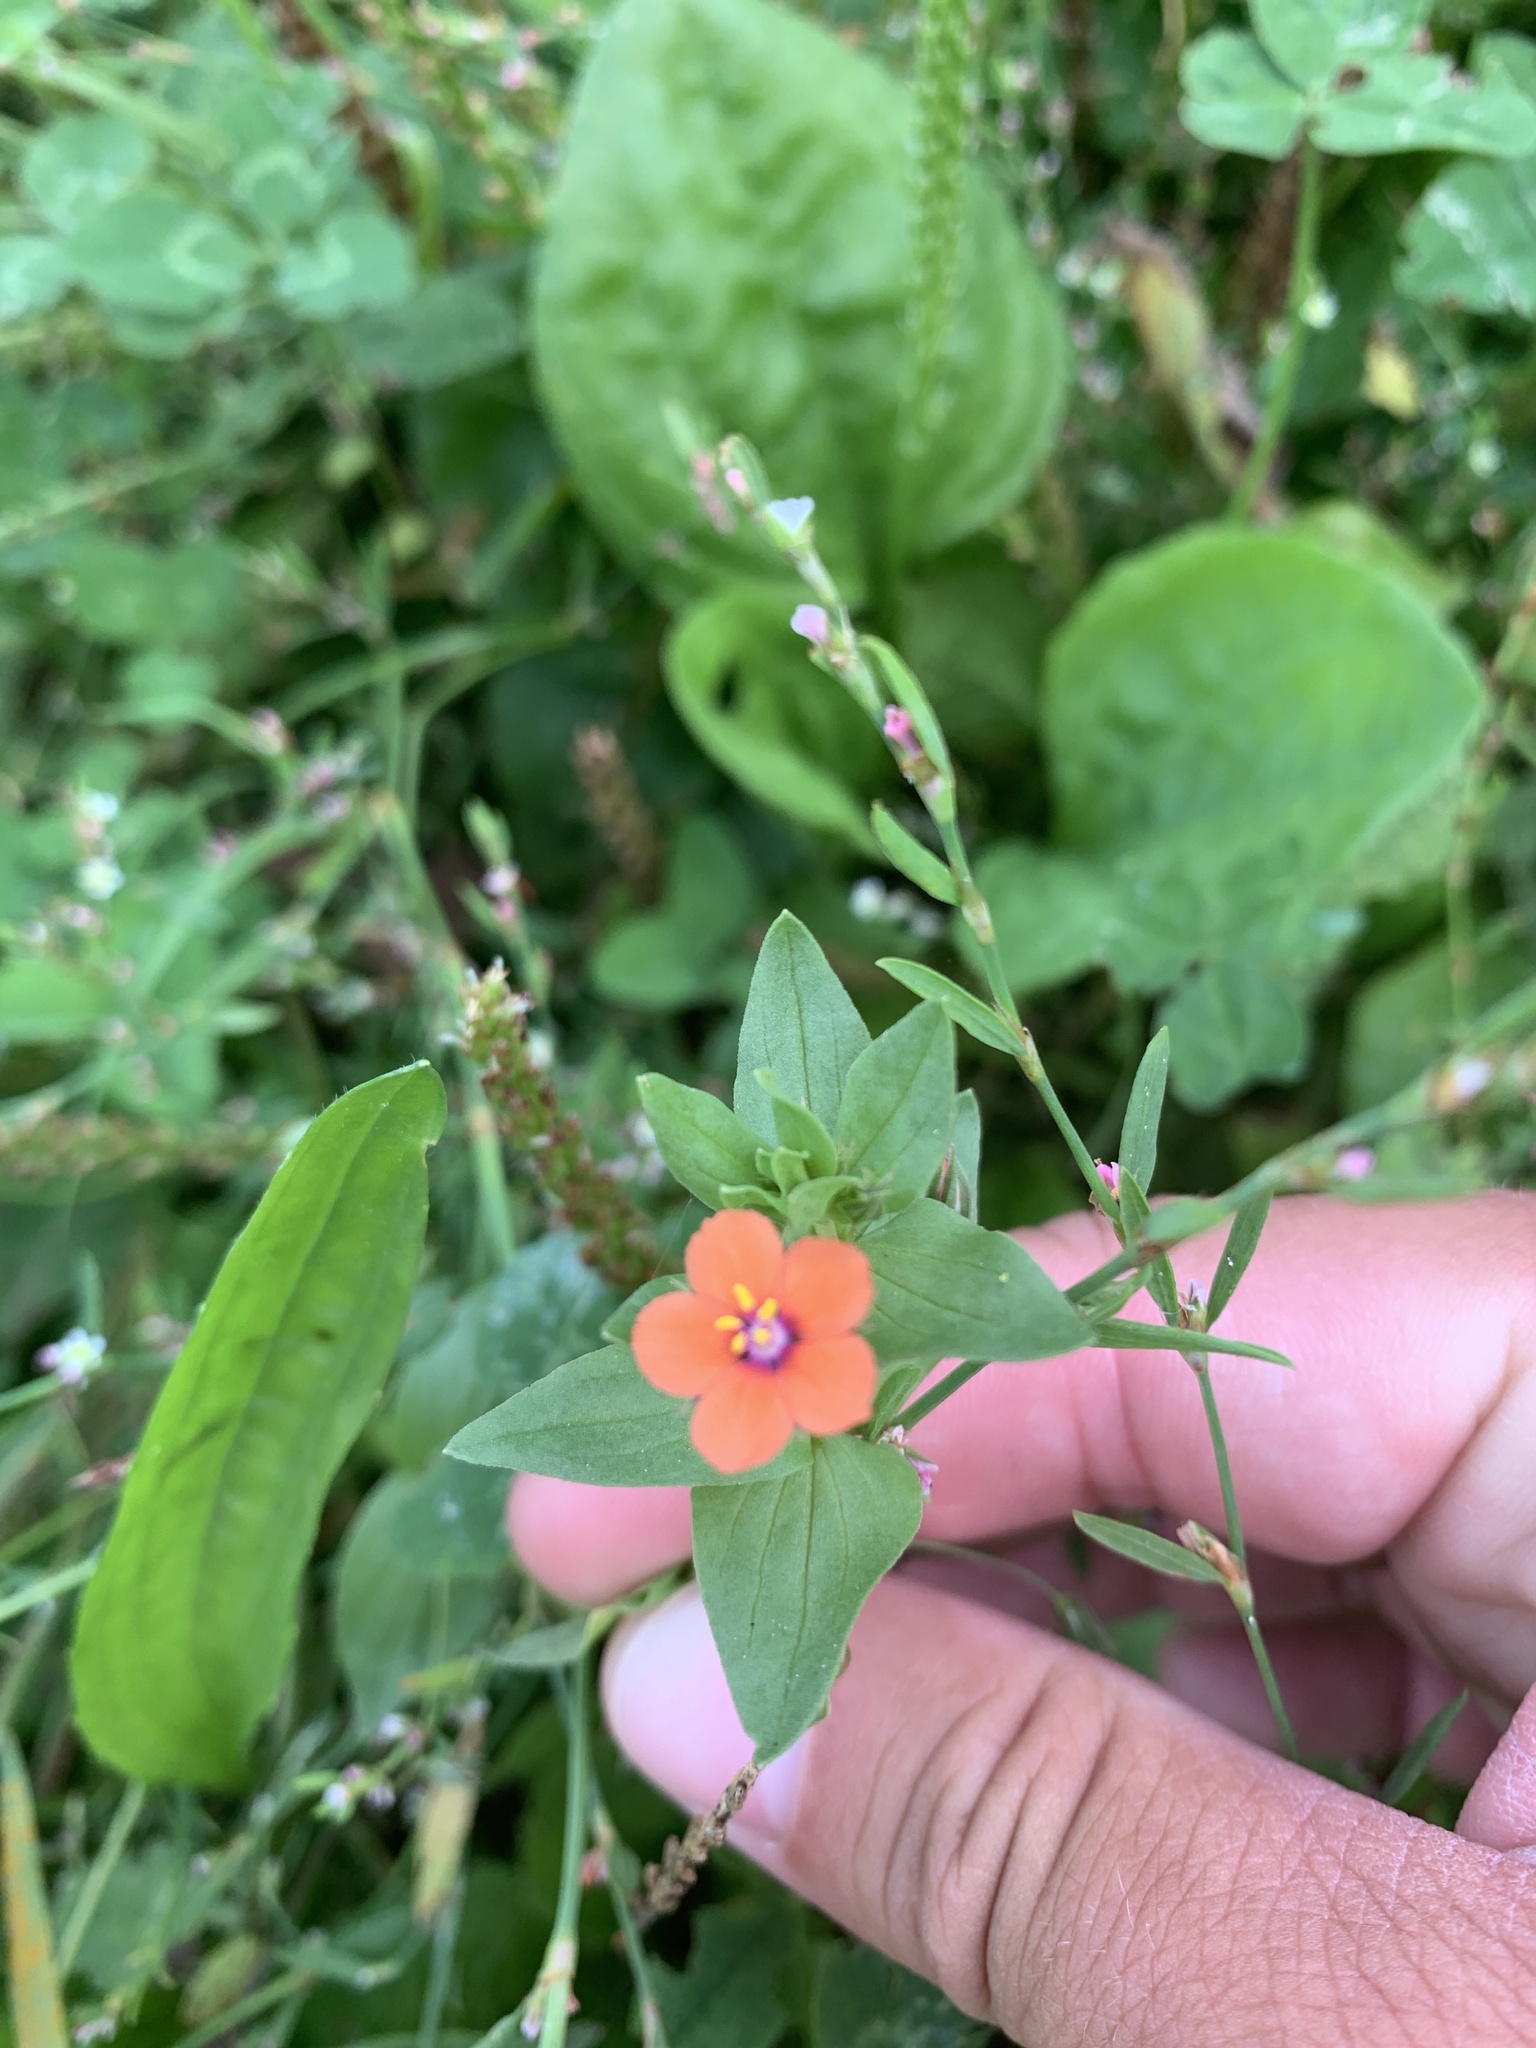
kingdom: Plantae
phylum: Tracheophyta
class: Magnoliopsida
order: Ericales
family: Primulaceae
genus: Lysimachia
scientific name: Lysimachia arvensis
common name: Scarlet pimpernel
